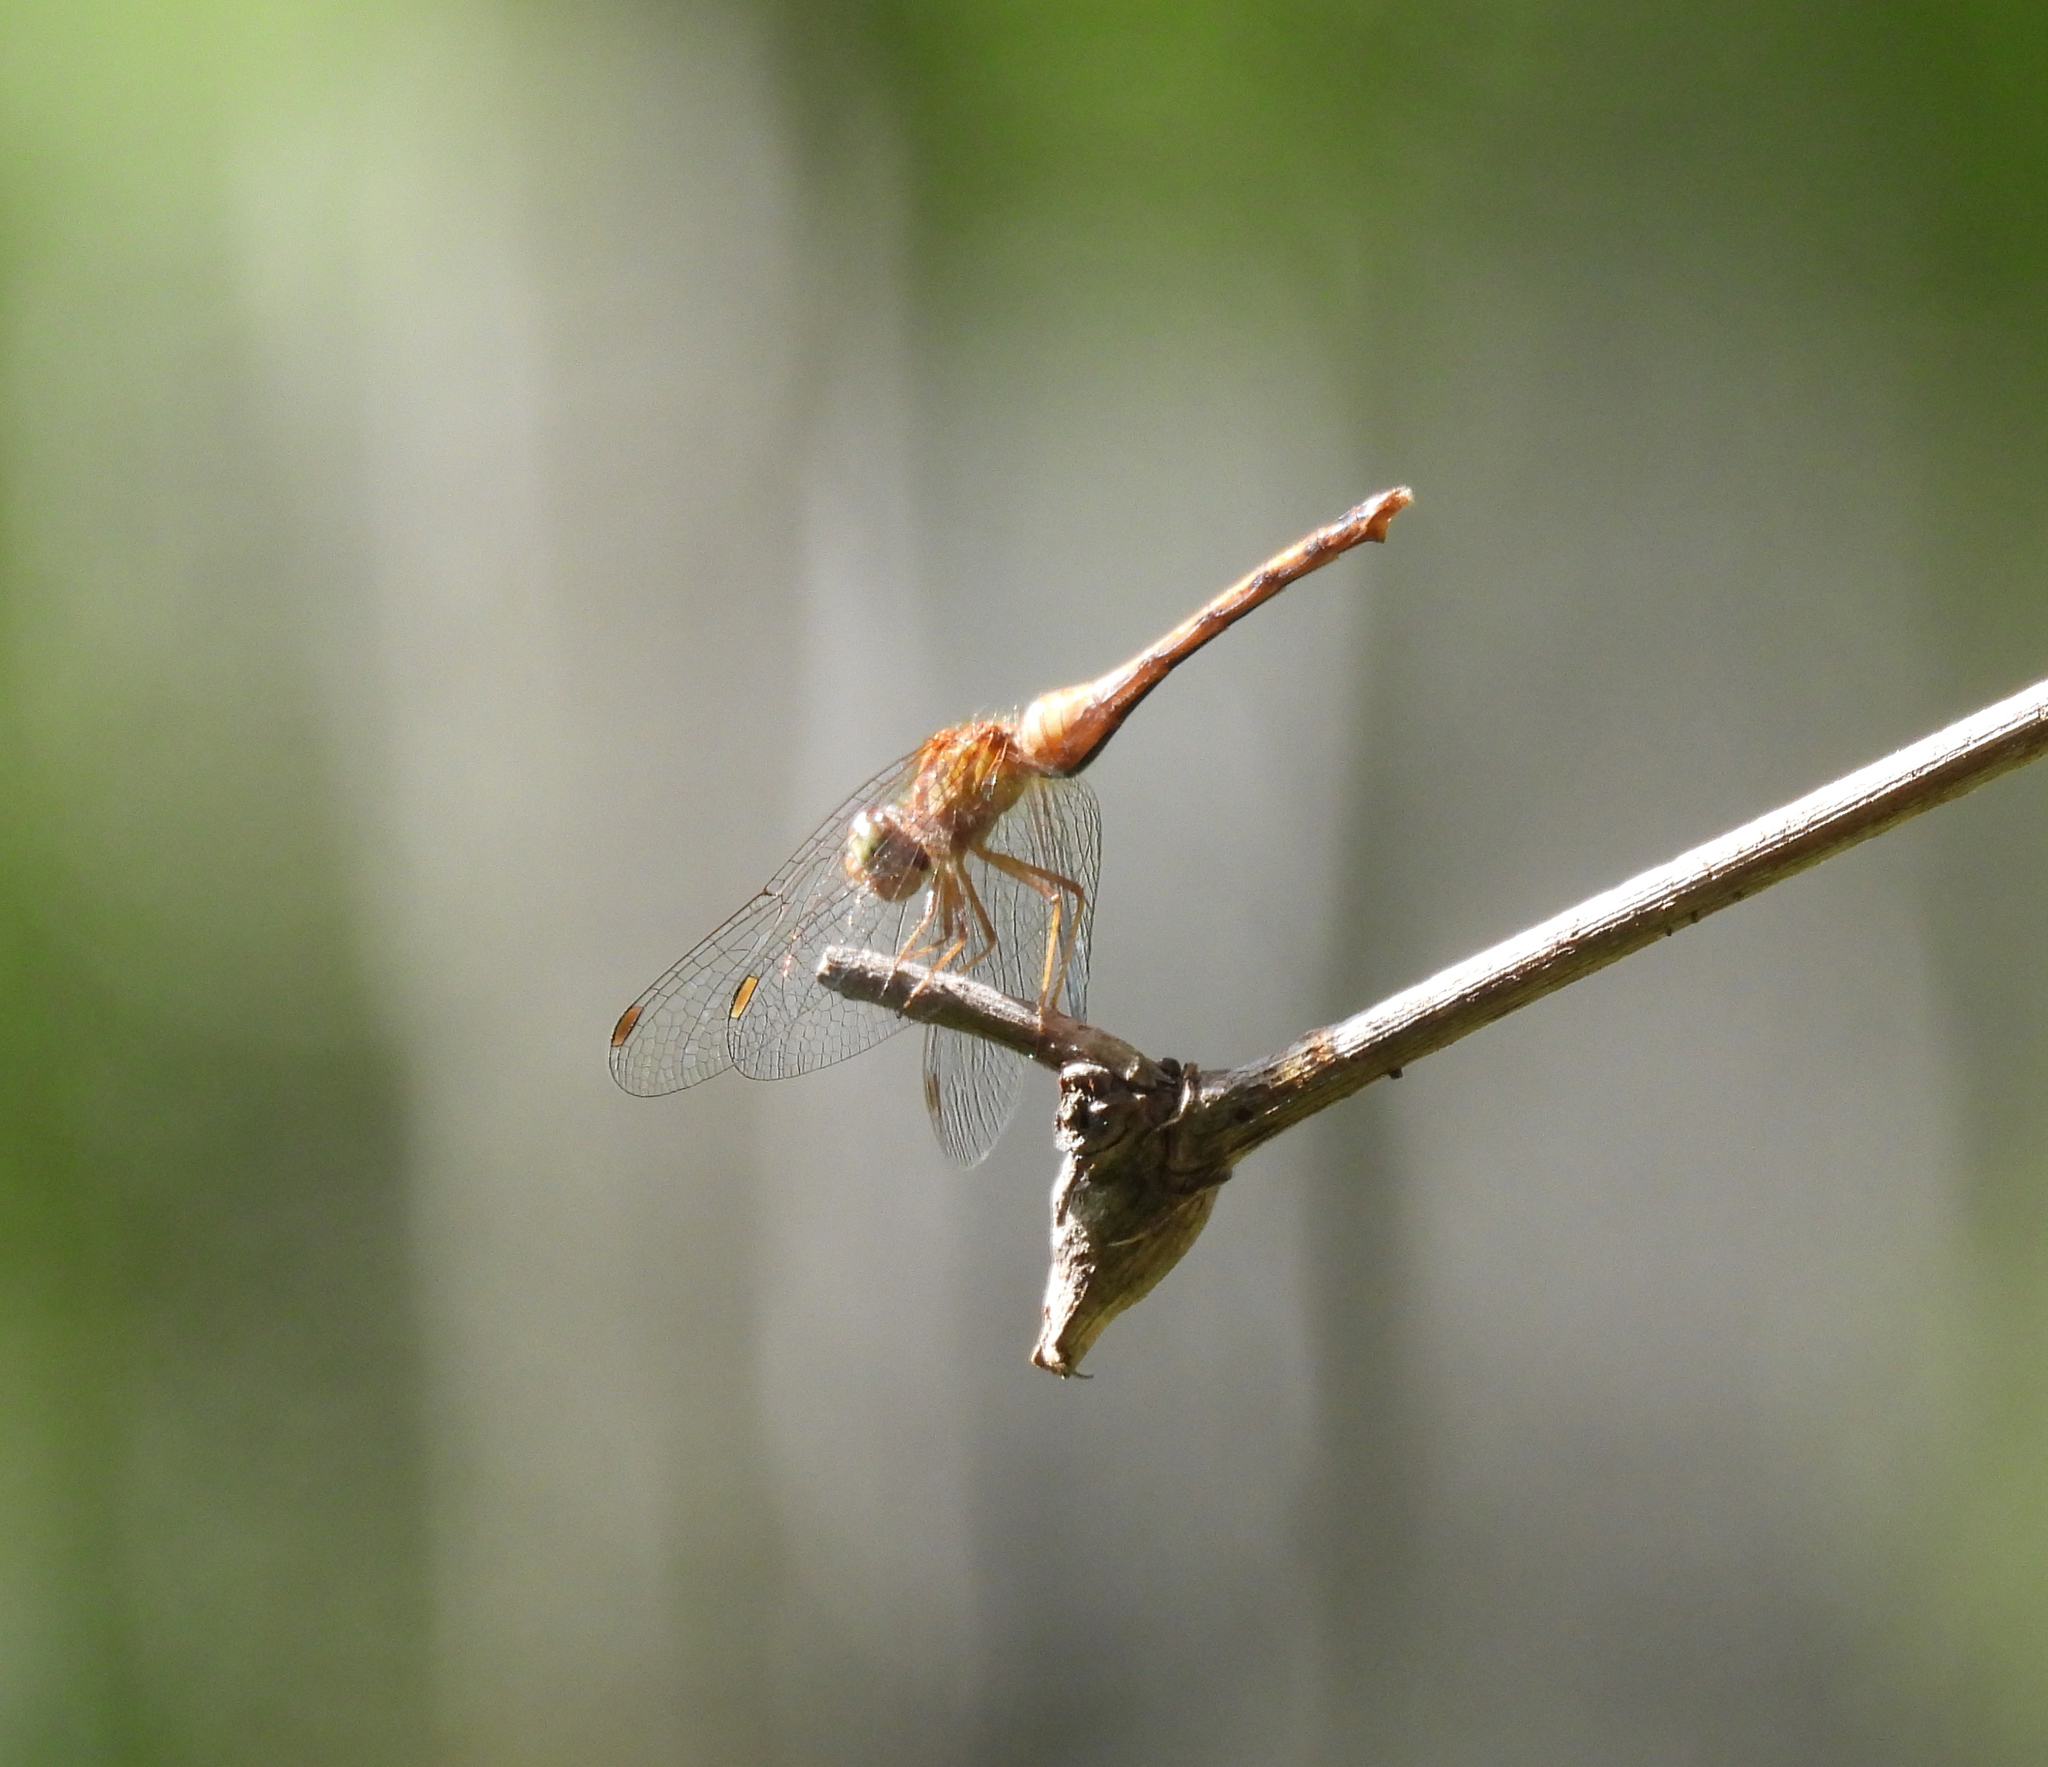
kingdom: Animalia
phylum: Arthropoda
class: Insecta
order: Odonata
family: Libellulidae
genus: Sympetrum
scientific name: Sympetrum vicinum
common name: Autumn meadowhawk
